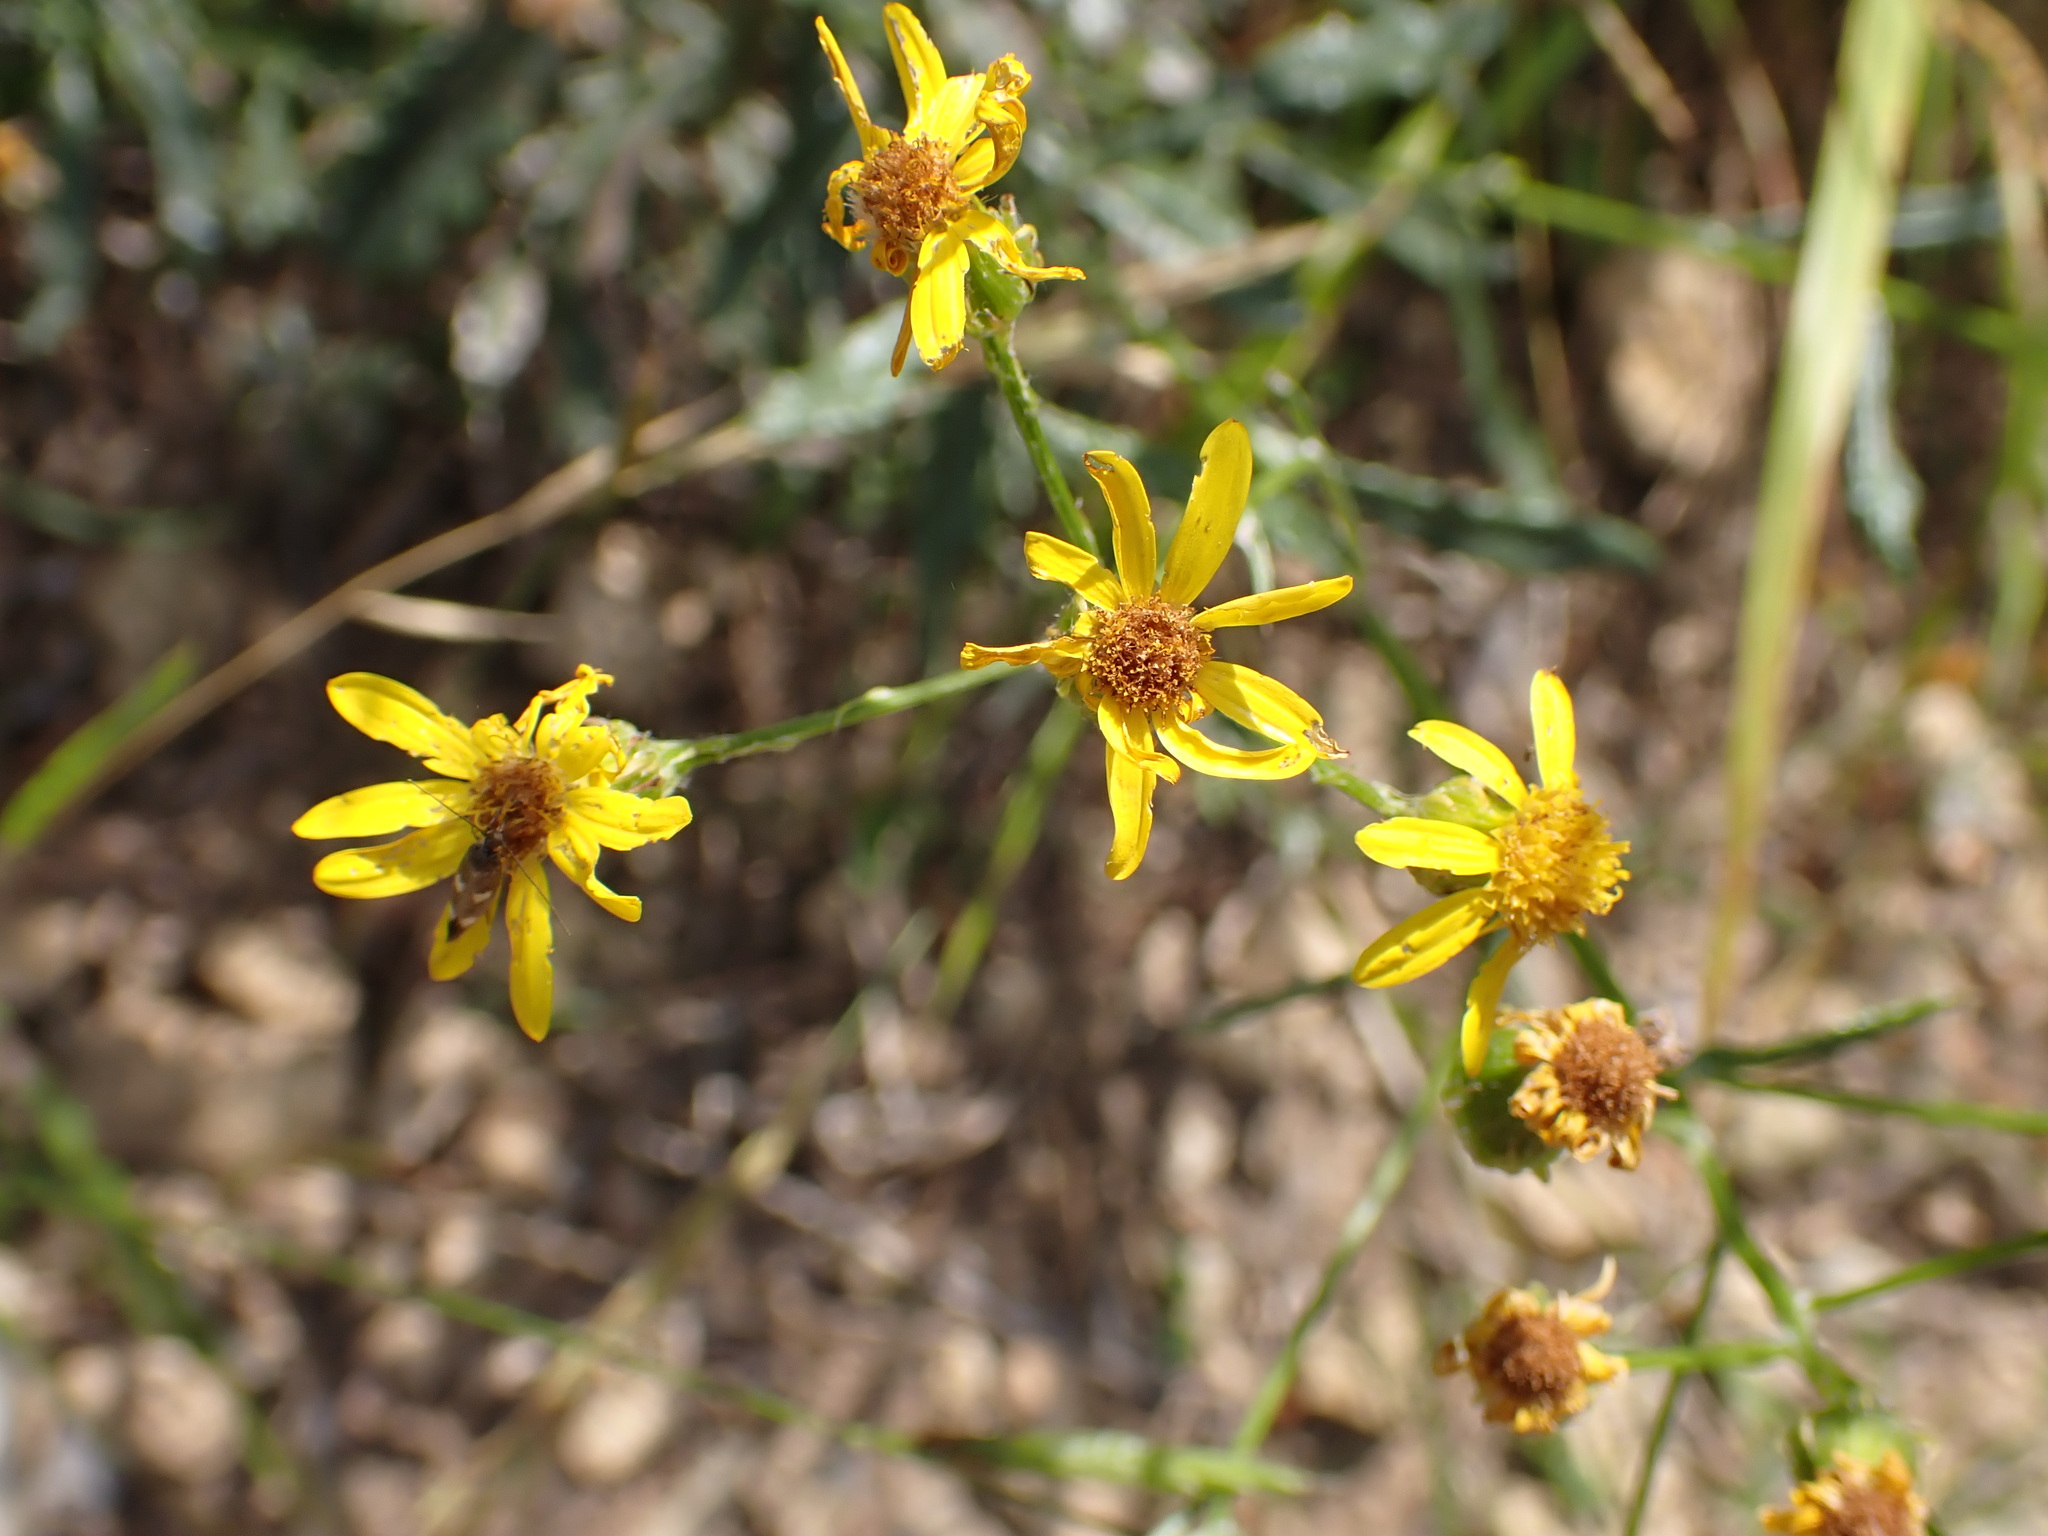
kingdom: Plantae
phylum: Tracheophyta
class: Magnoliopsida
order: Asterales
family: Asteraceae
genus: Senecio
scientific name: Senecio pterophorus
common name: Shoddy ragwort
